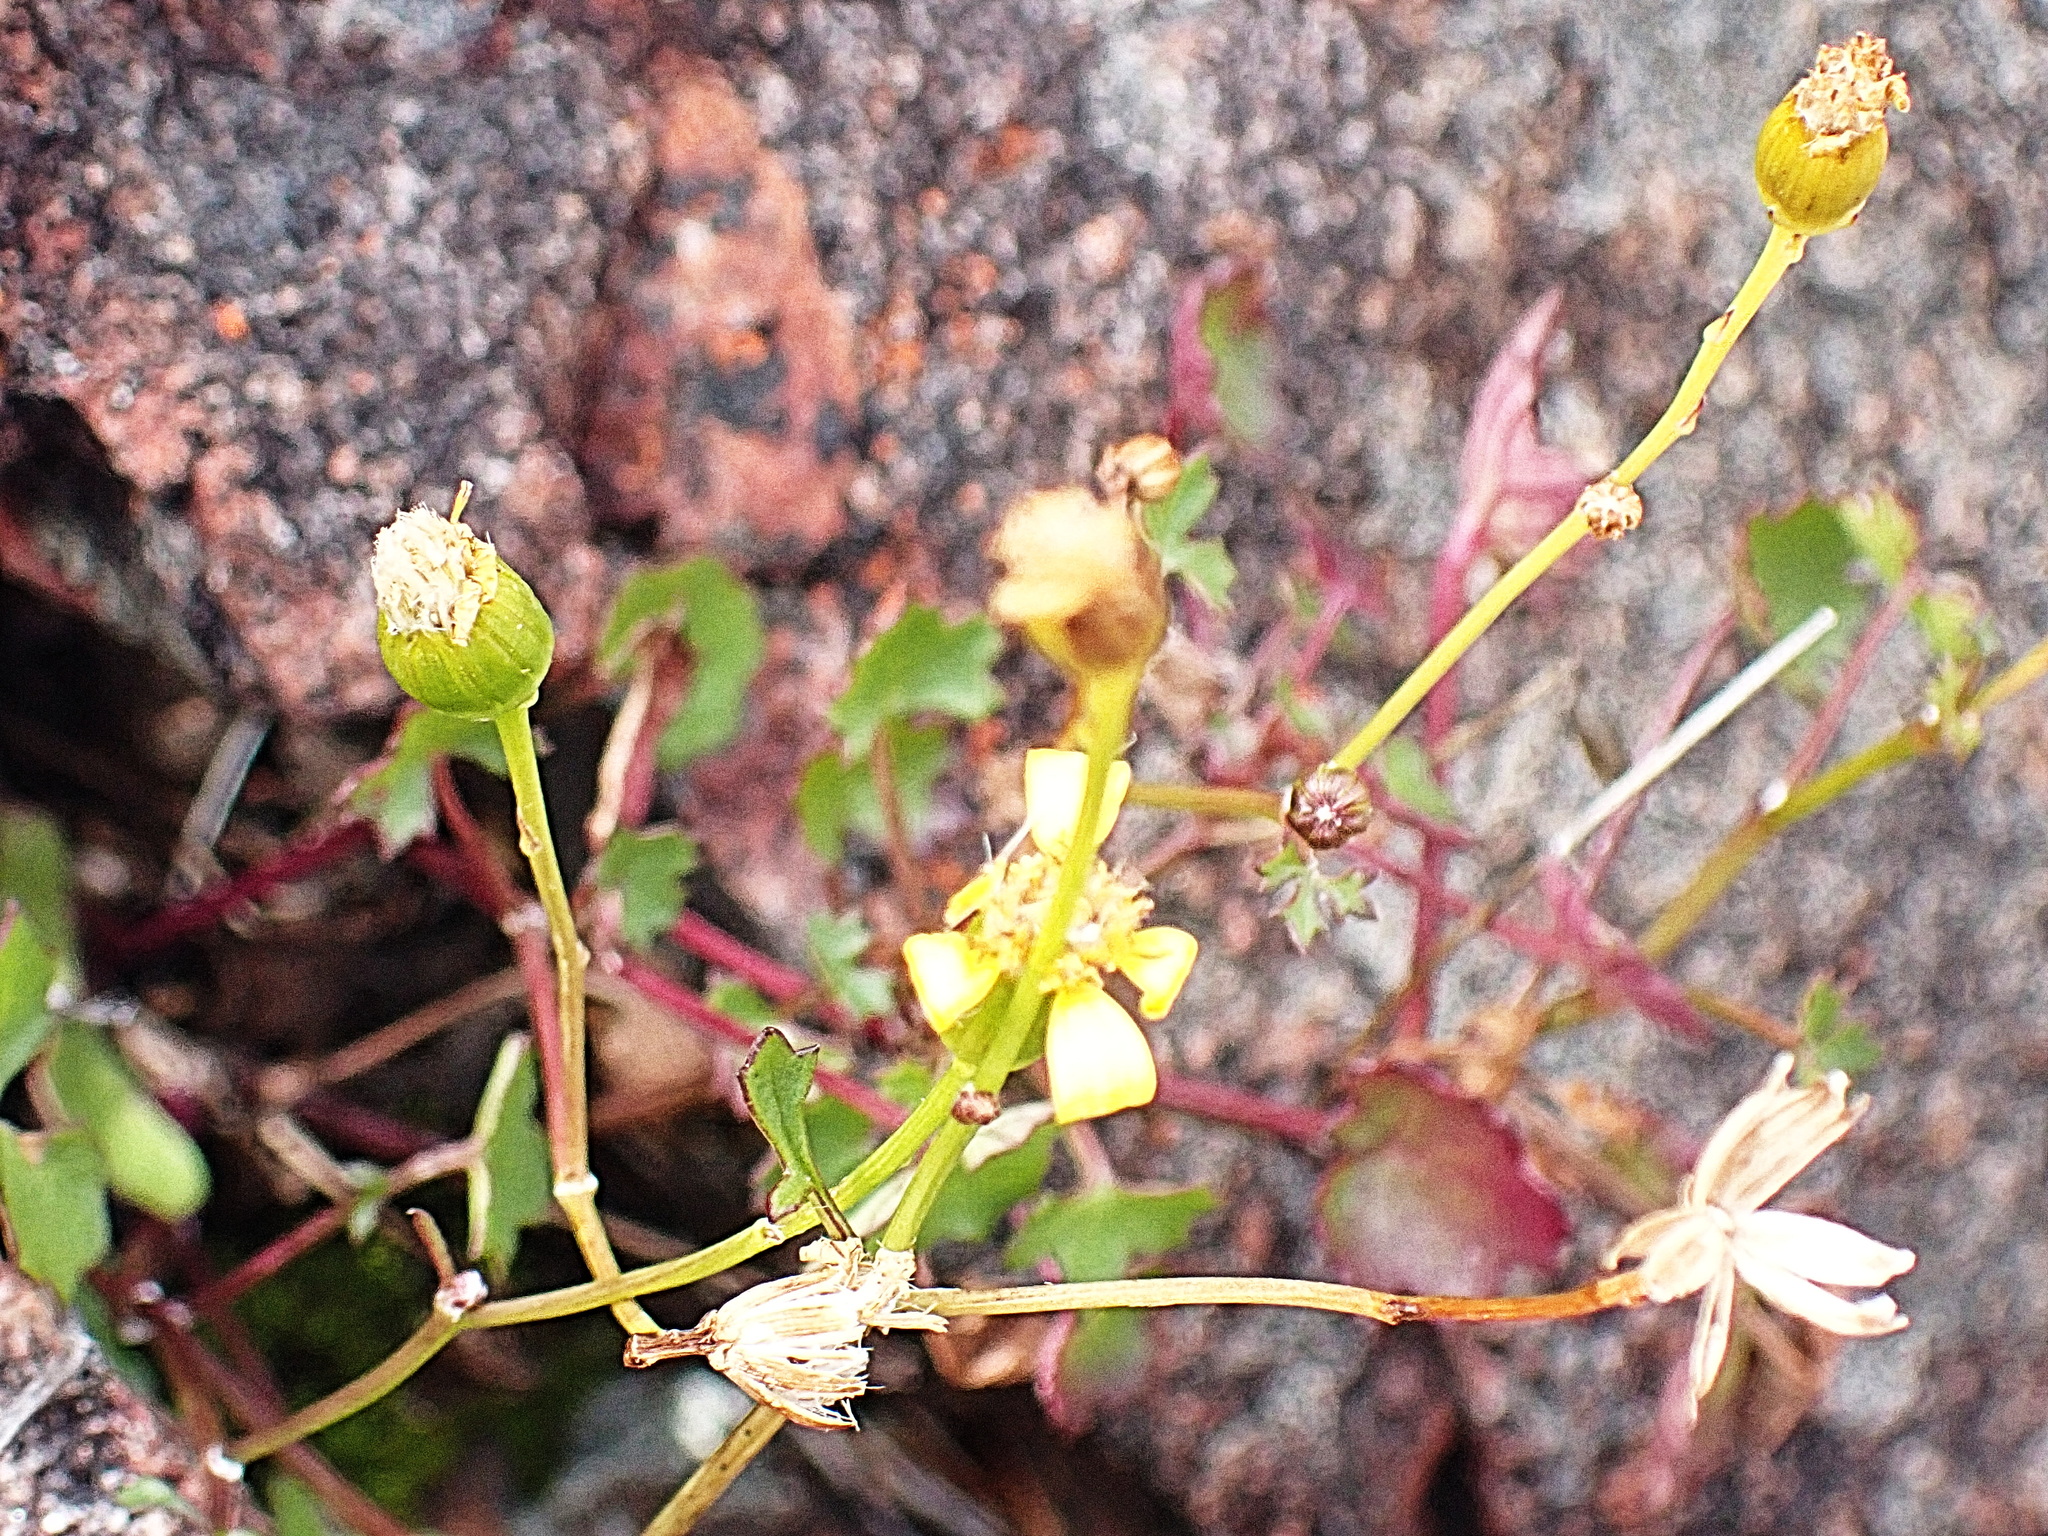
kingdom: Plantae
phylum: Tracheophyta
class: Magnoliopsida
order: Asterales
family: Asteraceae
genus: Cineraria
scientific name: Cineraria geifolia
